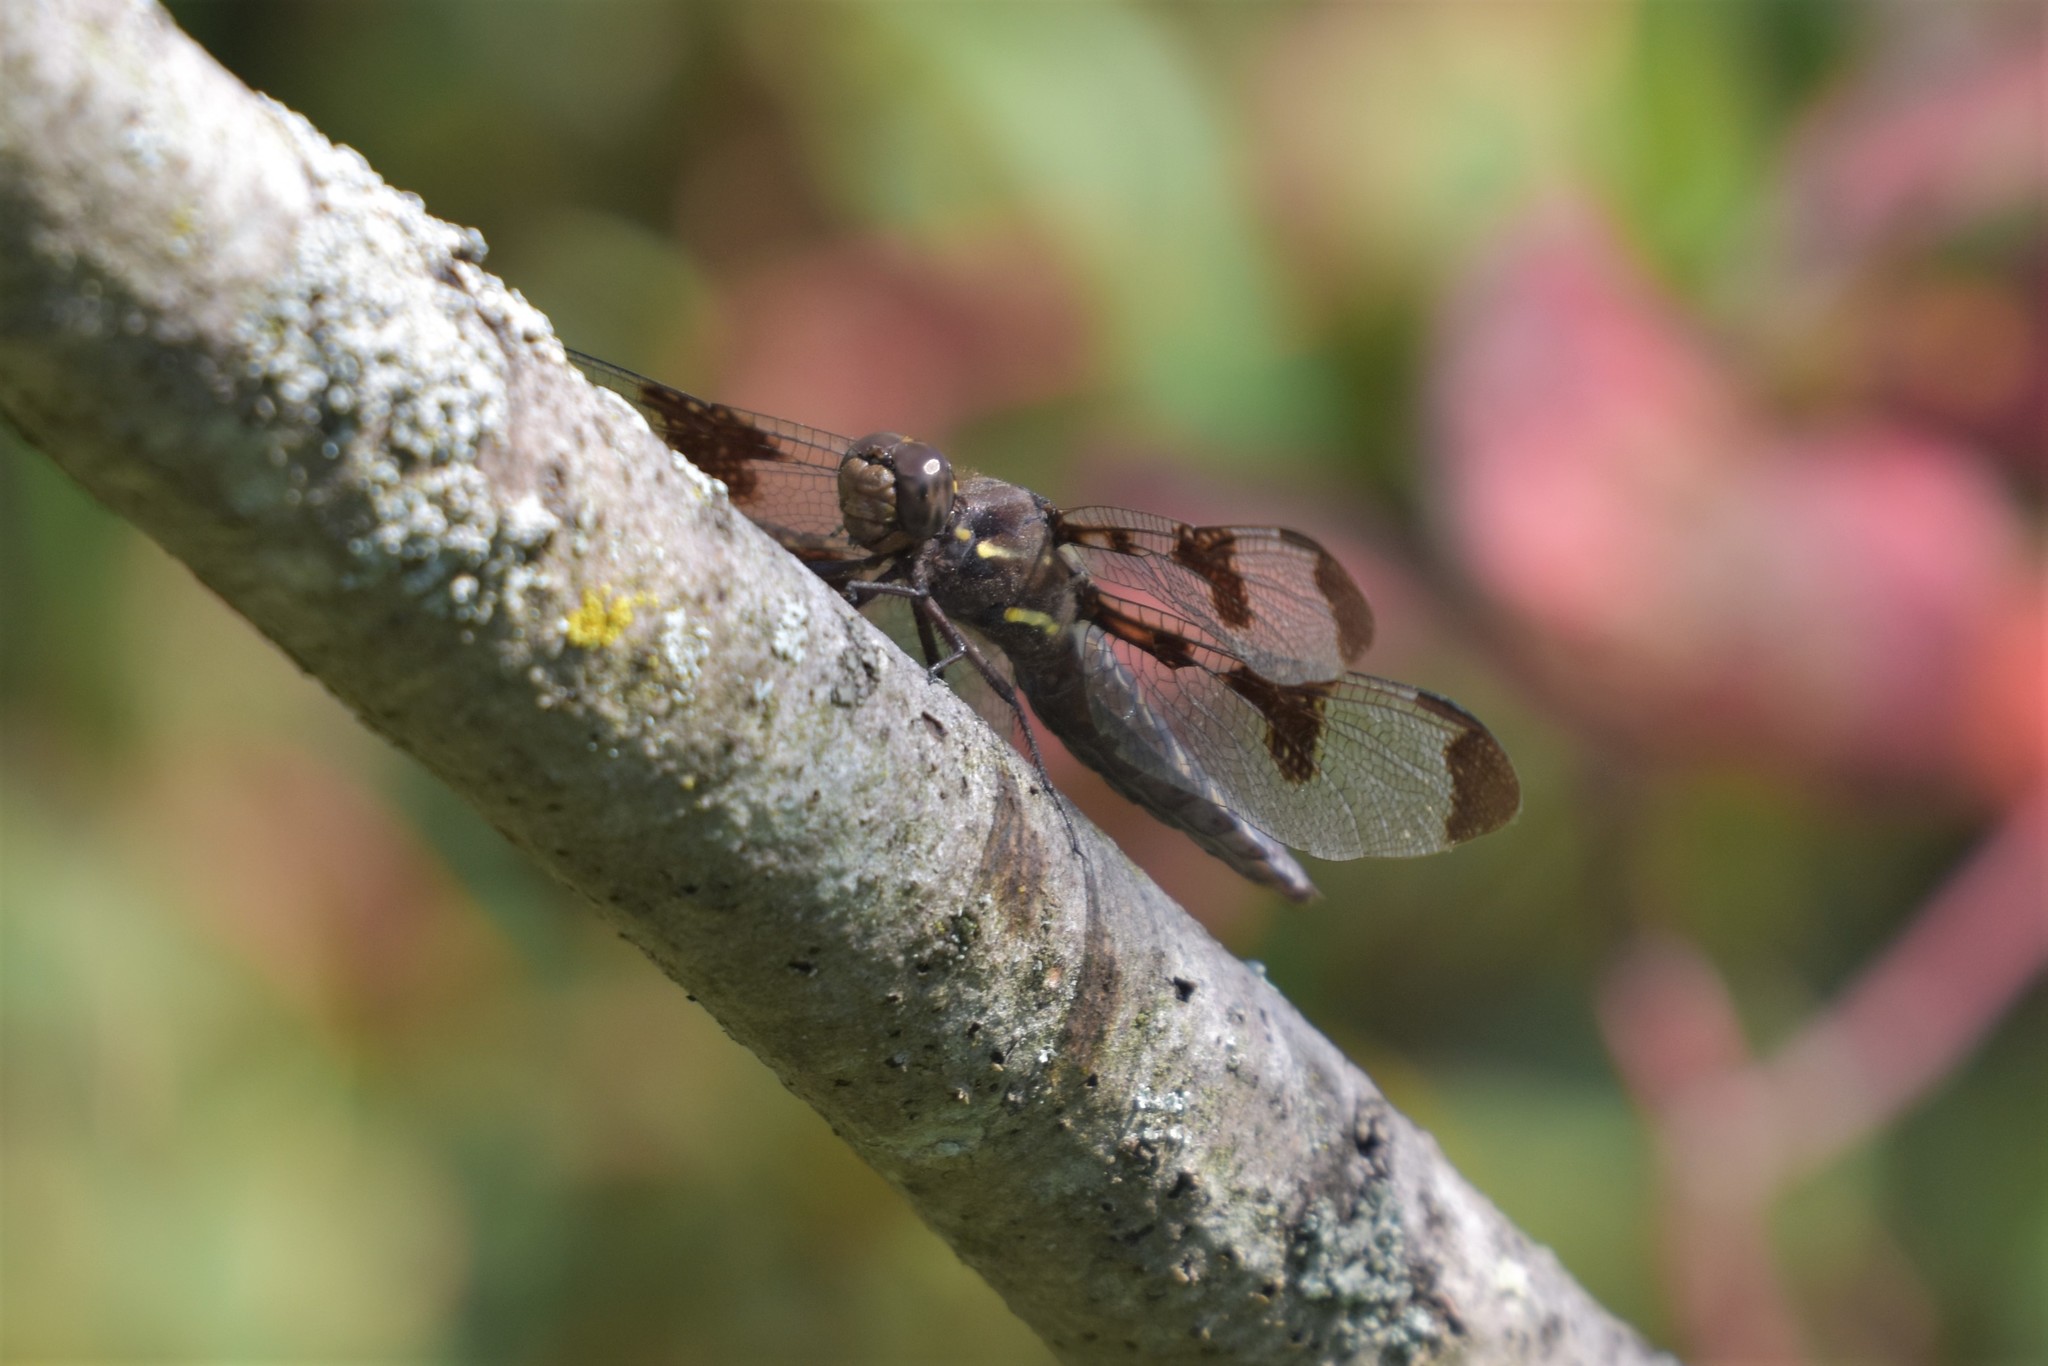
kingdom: Animalia
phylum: Arthropoda
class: Insecta
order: Odonata
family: Libellulidae
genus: Plathemis
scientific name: Plathemis lydia
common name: Common whitetail
